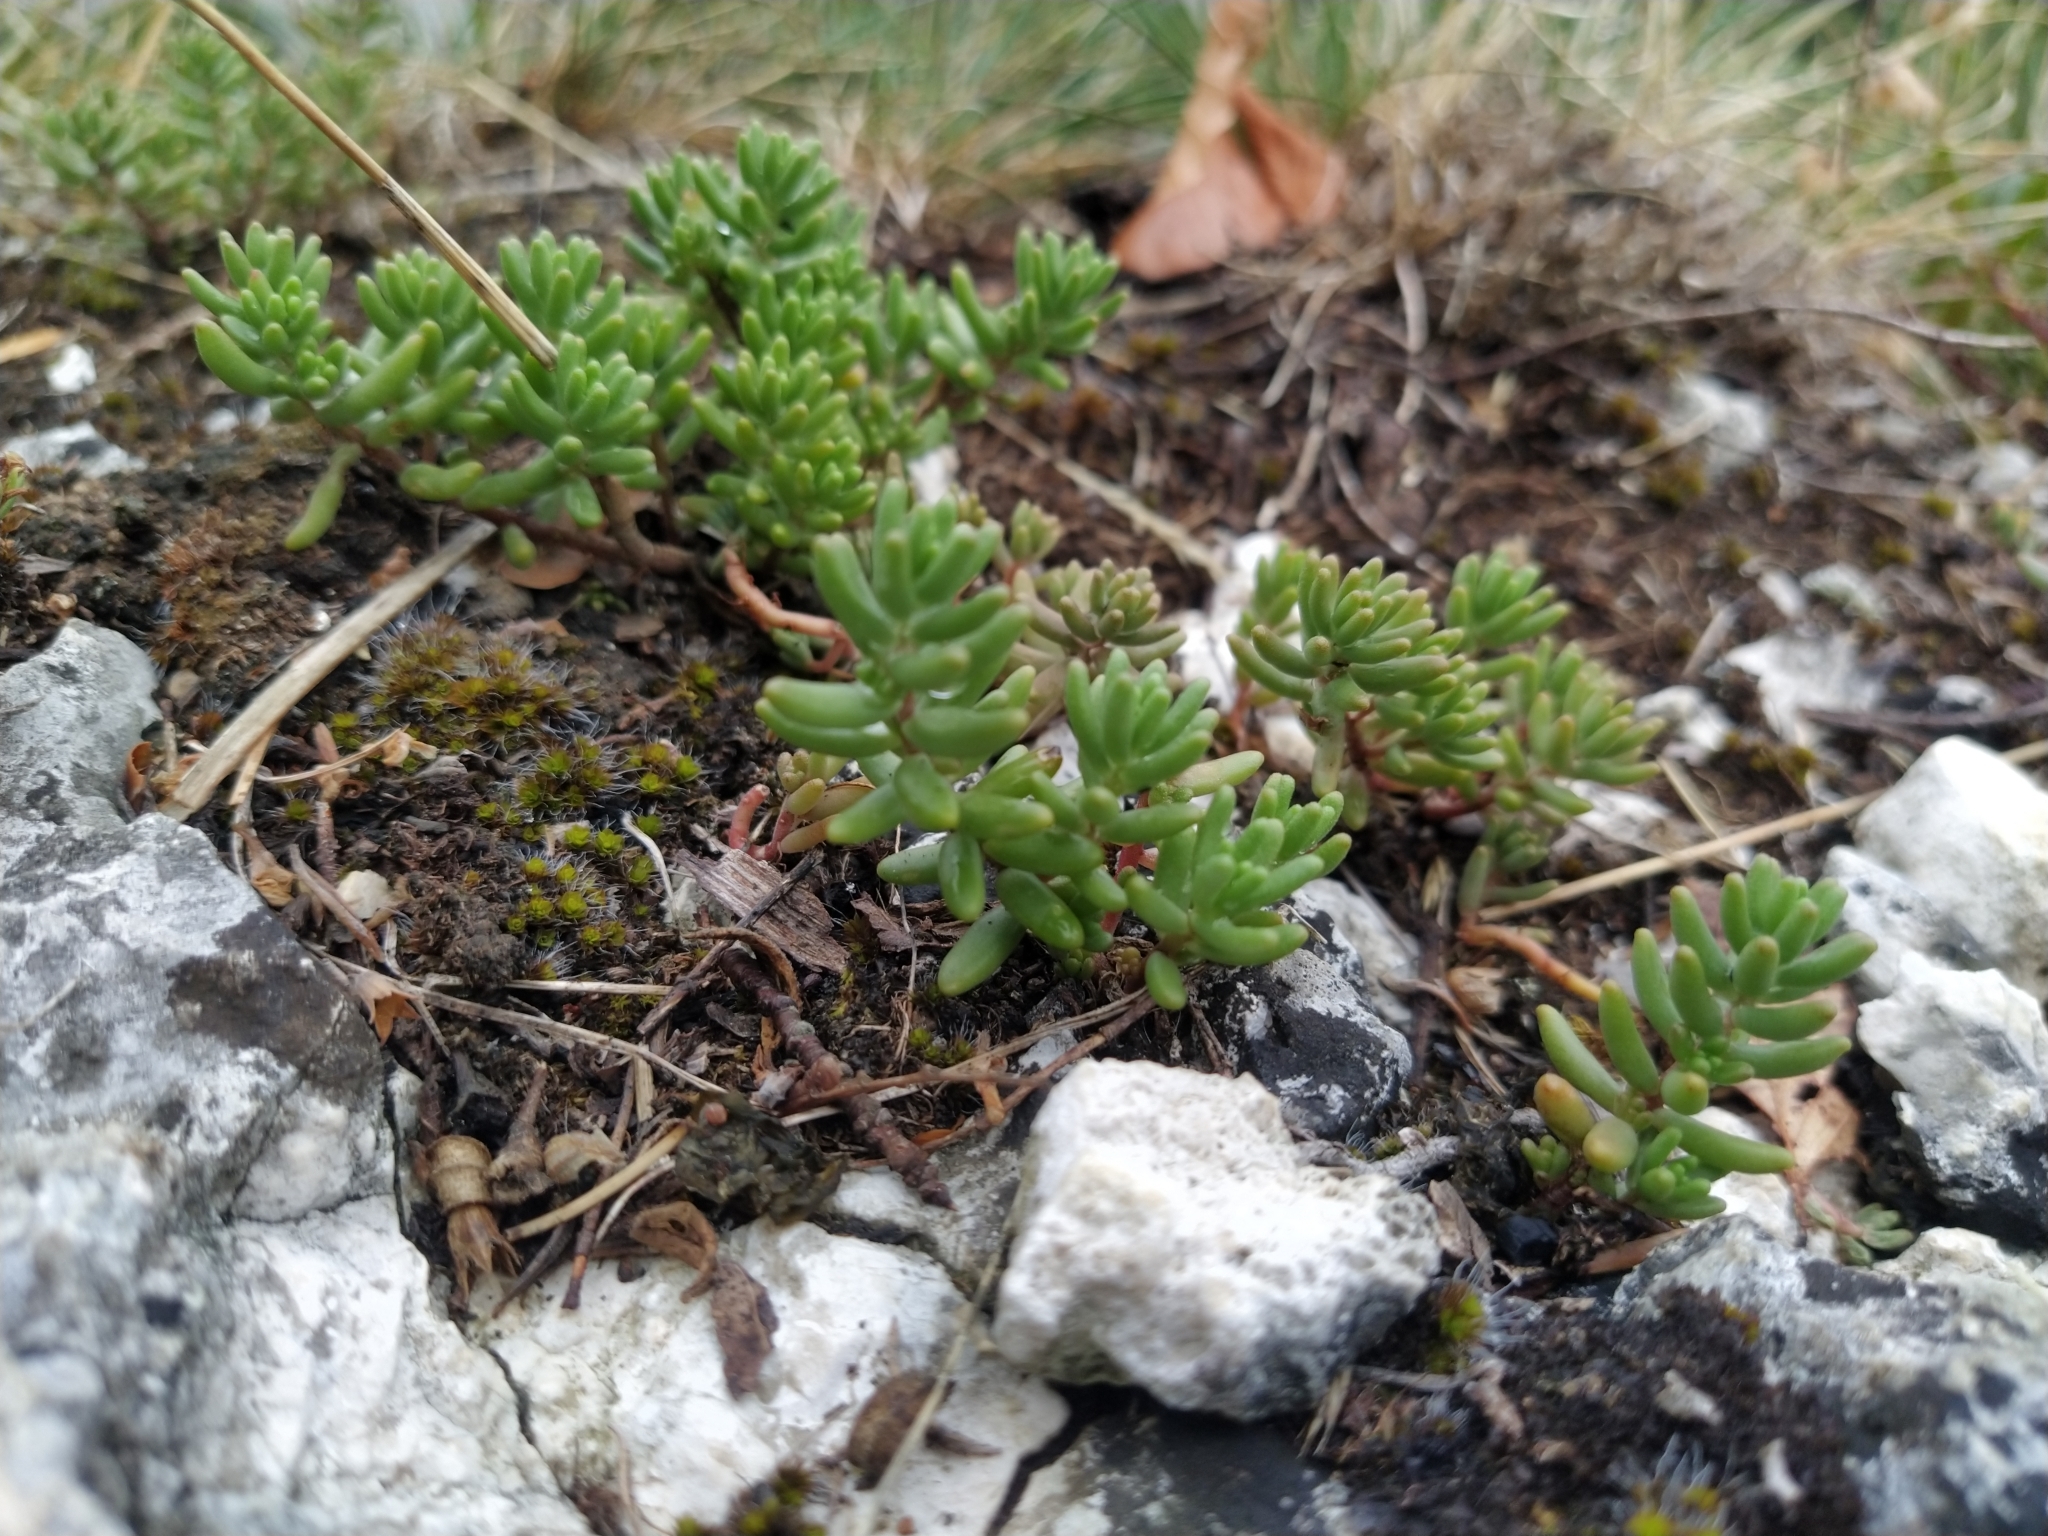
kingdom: Plantae
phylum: Tracheophyta
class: Magnoliopsida
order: Saxifragales
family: Crassulaceae
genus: Sedum
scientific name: Sedum album
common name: White stonecrop
